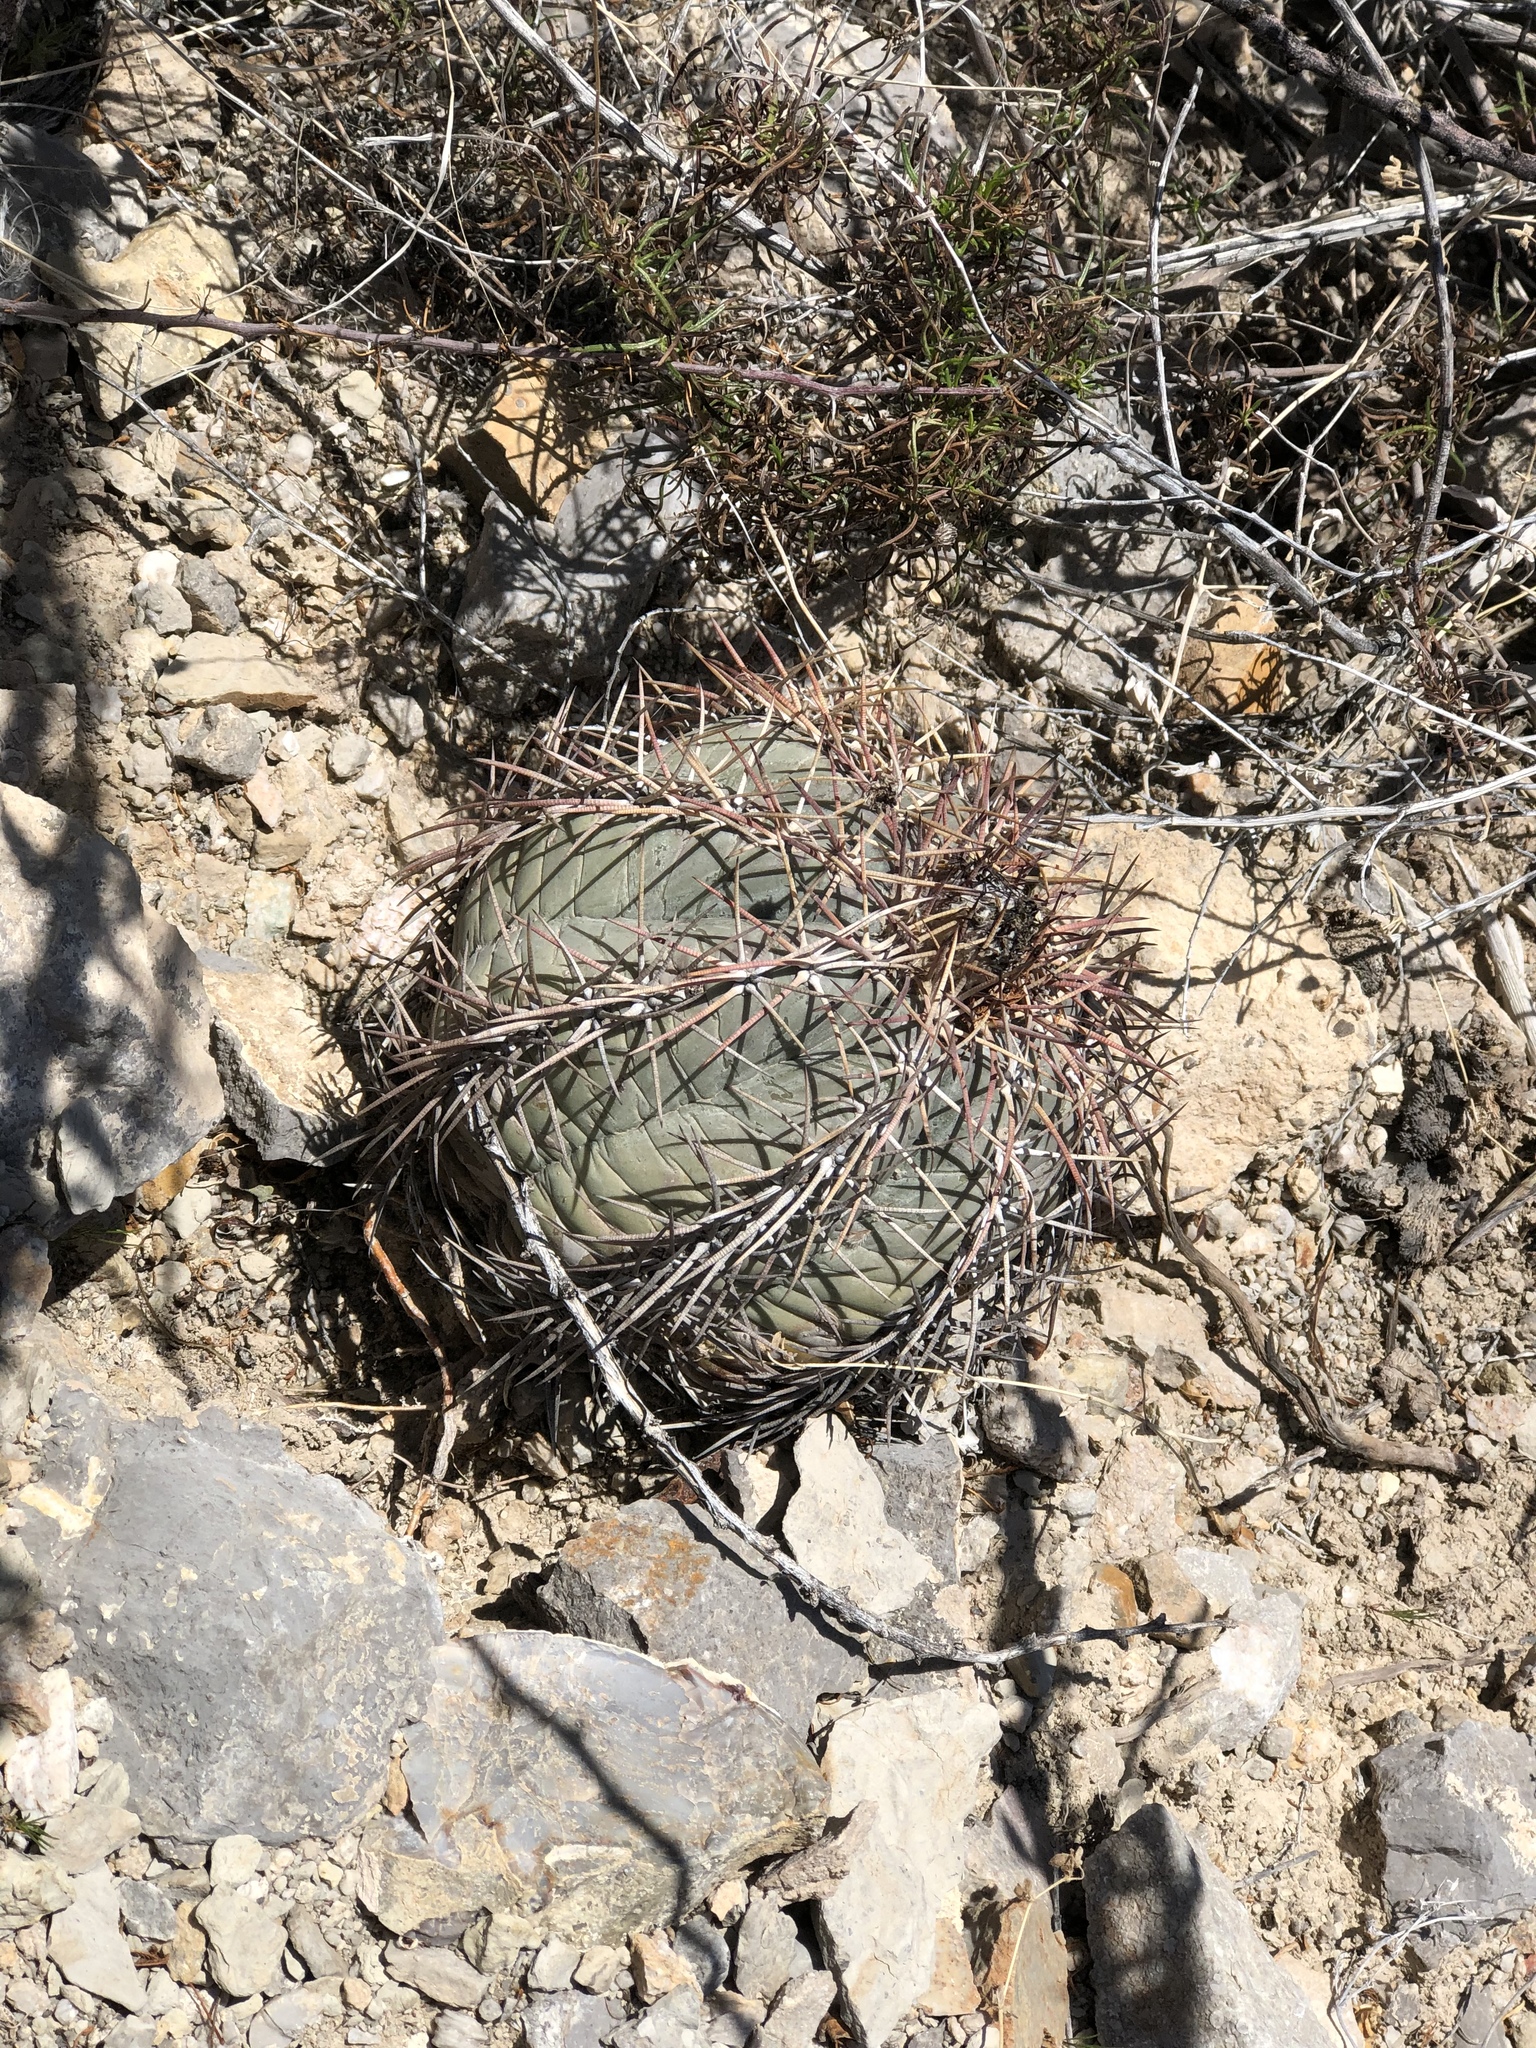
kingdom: Plantae
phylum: Tracheophyta
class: Magnoliopsida
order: Caryophyllales
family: Cactaceae
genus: Echinocactus
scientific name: Echinocactus horizonthalonius
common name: Devilshead
